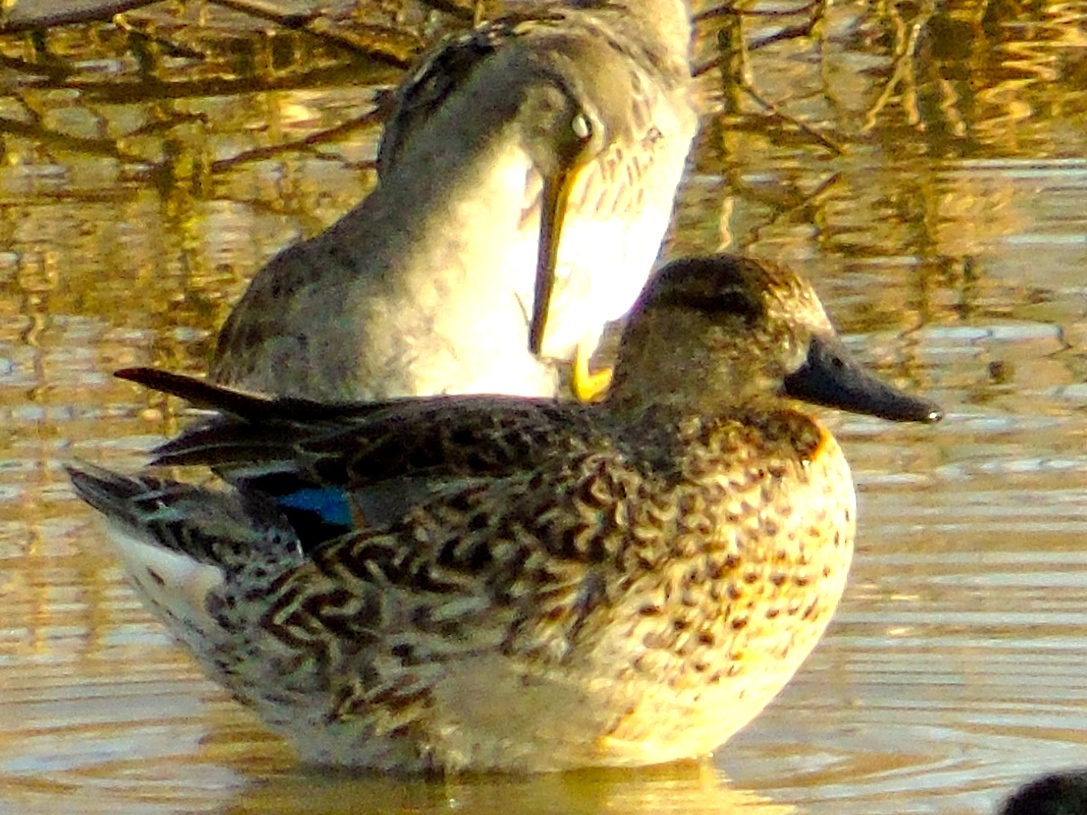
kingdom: Animalia
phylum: Chordata
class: Aves
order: Anseriformes
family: Anatidae
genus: Anas
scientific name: Anas crecca
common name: Eurasian teal
